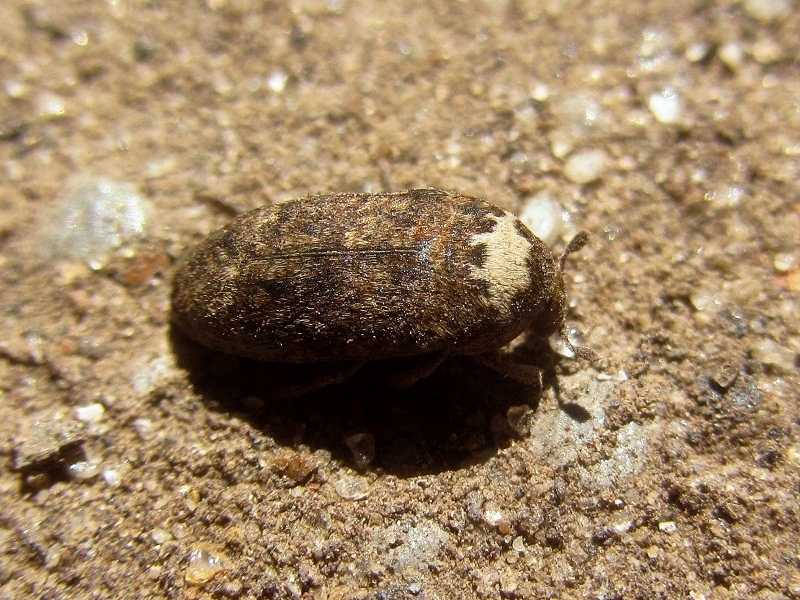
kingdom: Animalia
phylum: Arthropoda
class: Insecta
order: Coleoptera
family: Dermestidae
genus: Dermestes
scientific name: Dermestes coronatus
